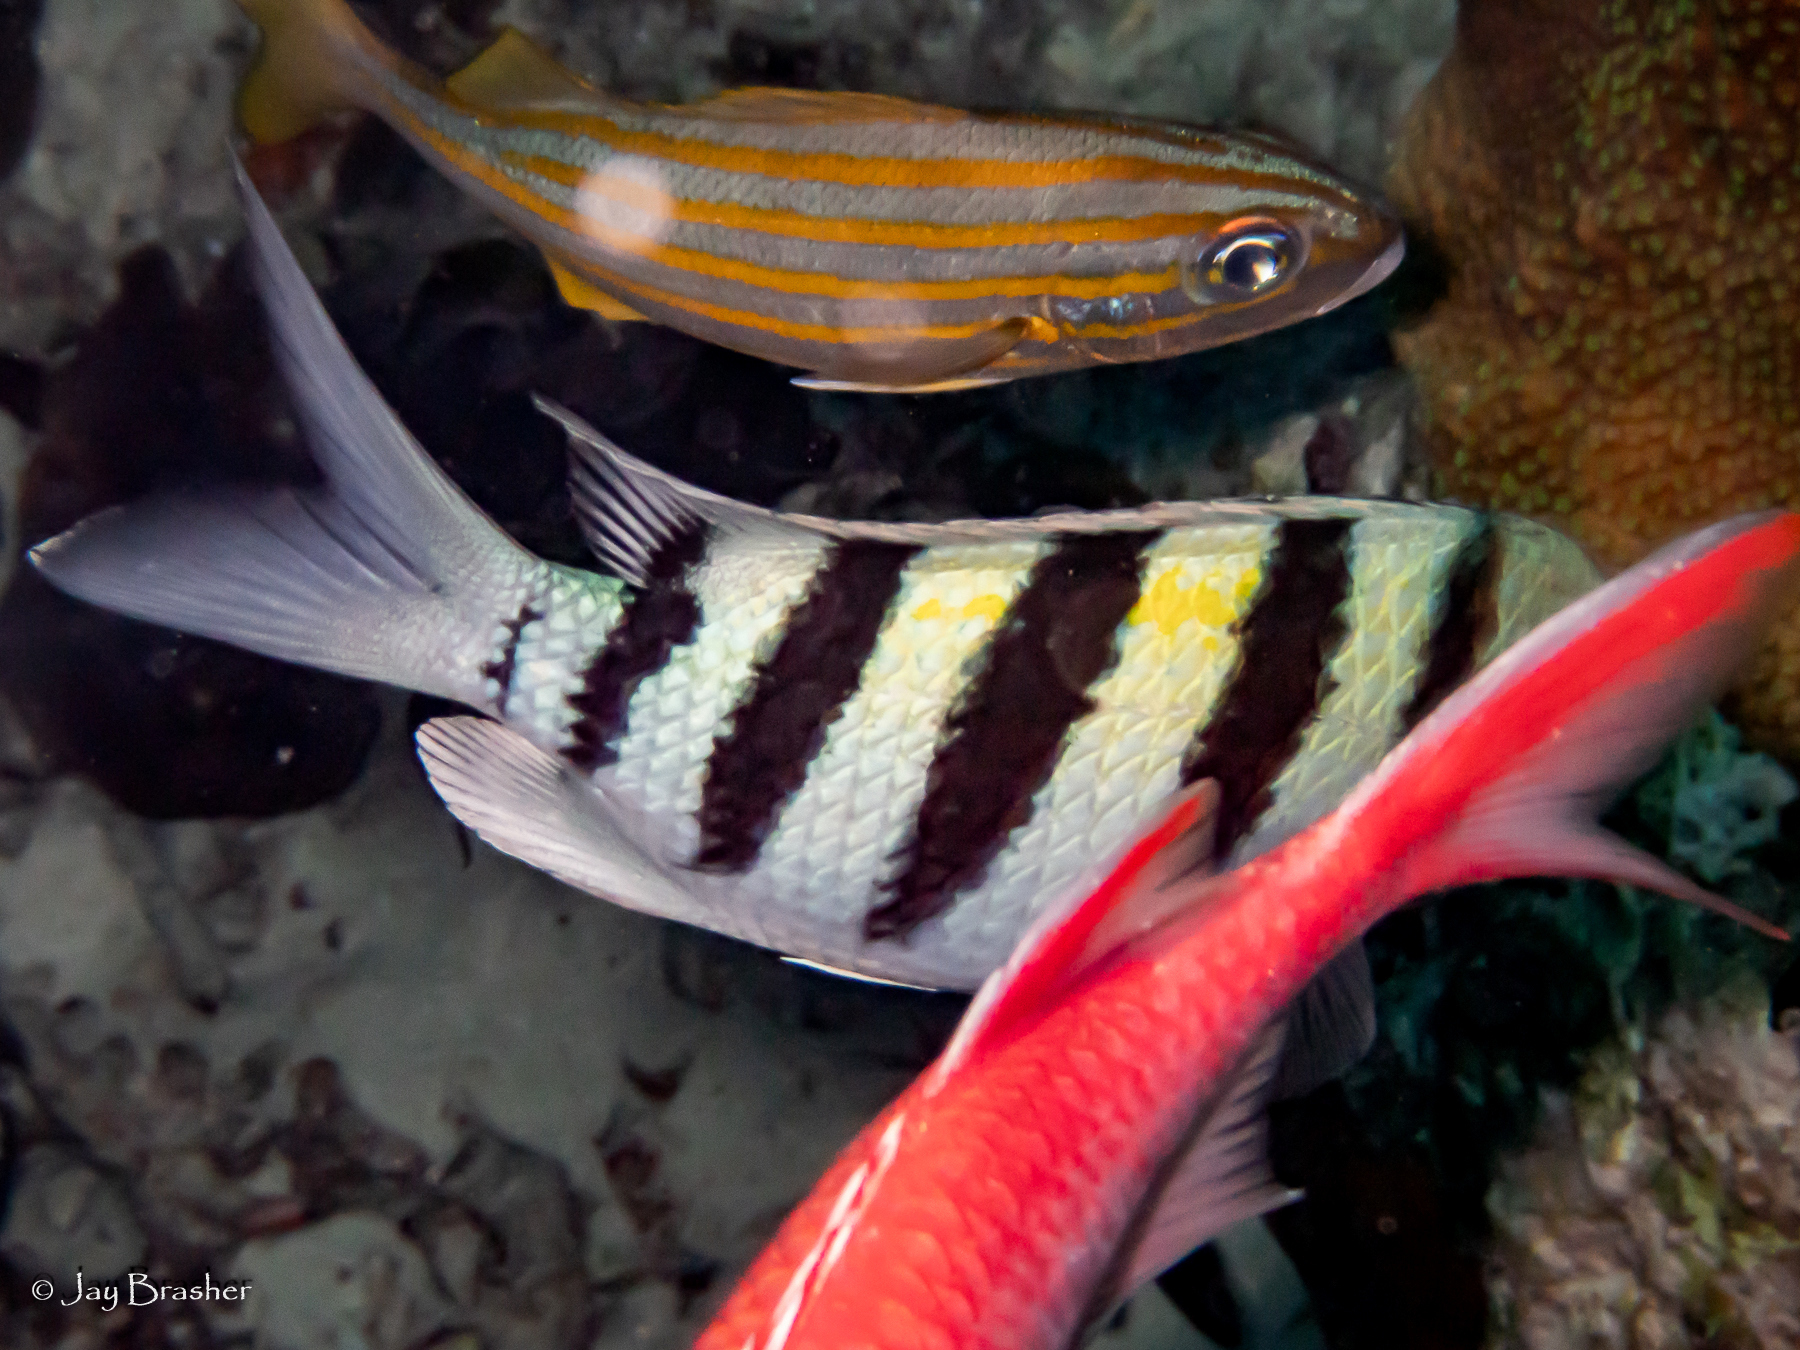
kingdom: Animalia
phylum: Chordata
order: Perciformes
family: Pomacentridae
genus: Abudefduf
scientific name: Abudefduf saxatilis
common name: Sergeant major
